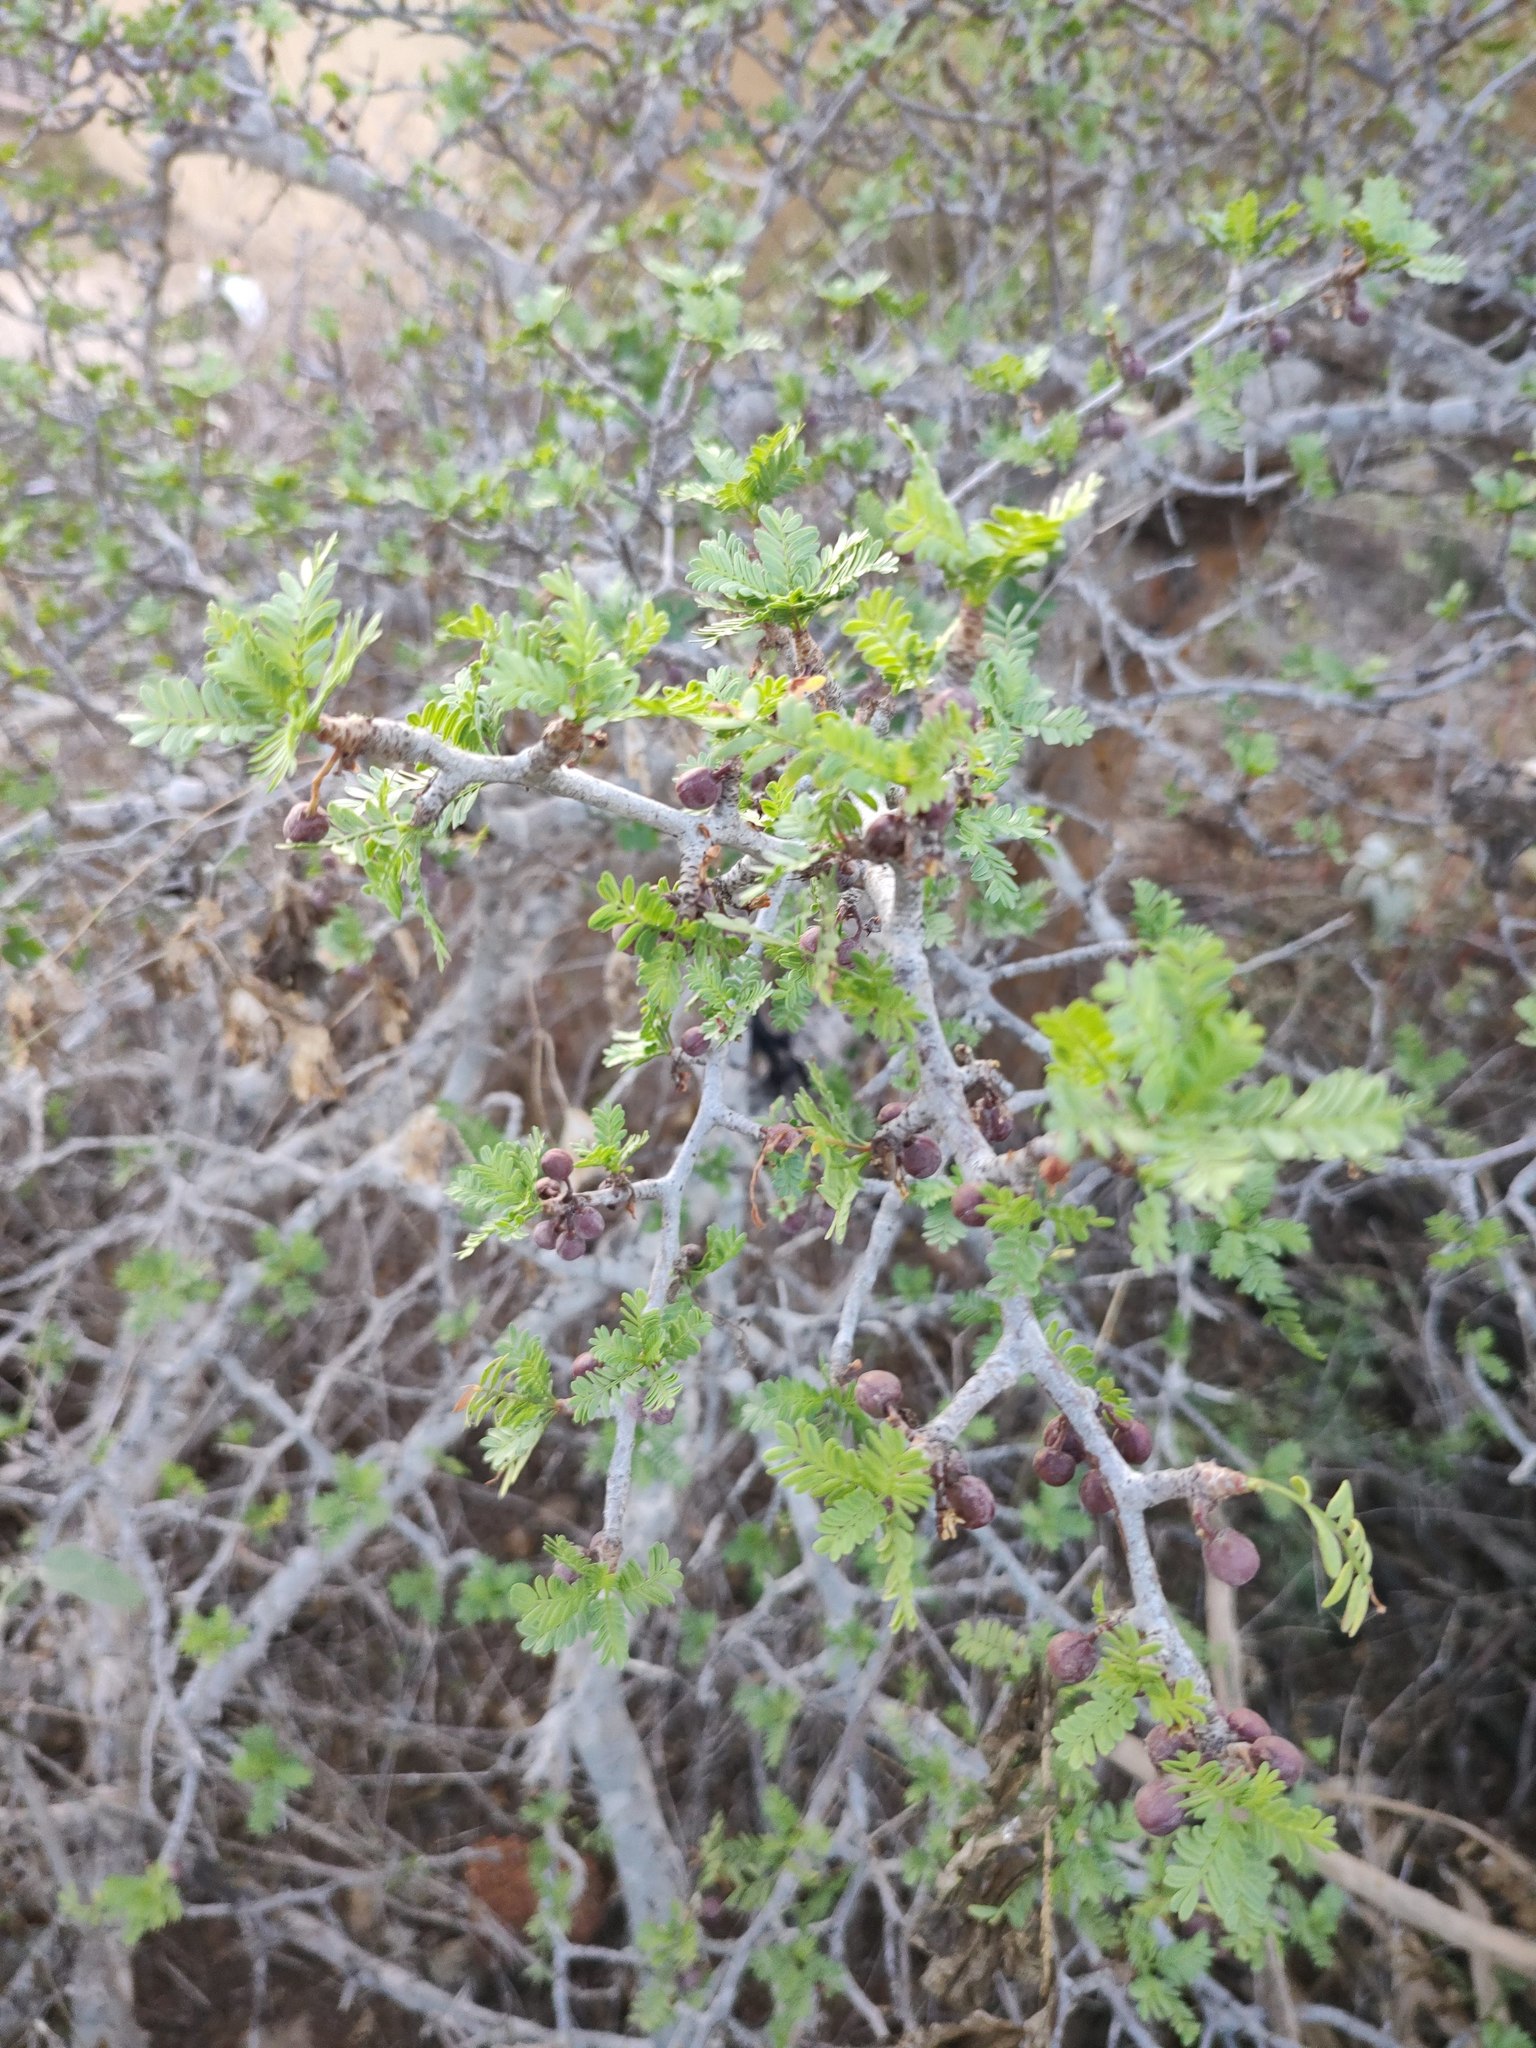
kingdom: Plantae
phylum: Tracheophyta
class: Magnoliopsida
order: Sapindales
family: Burseraceae
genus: Bursera
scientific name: Bursera microphylla
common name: Elephant tree
